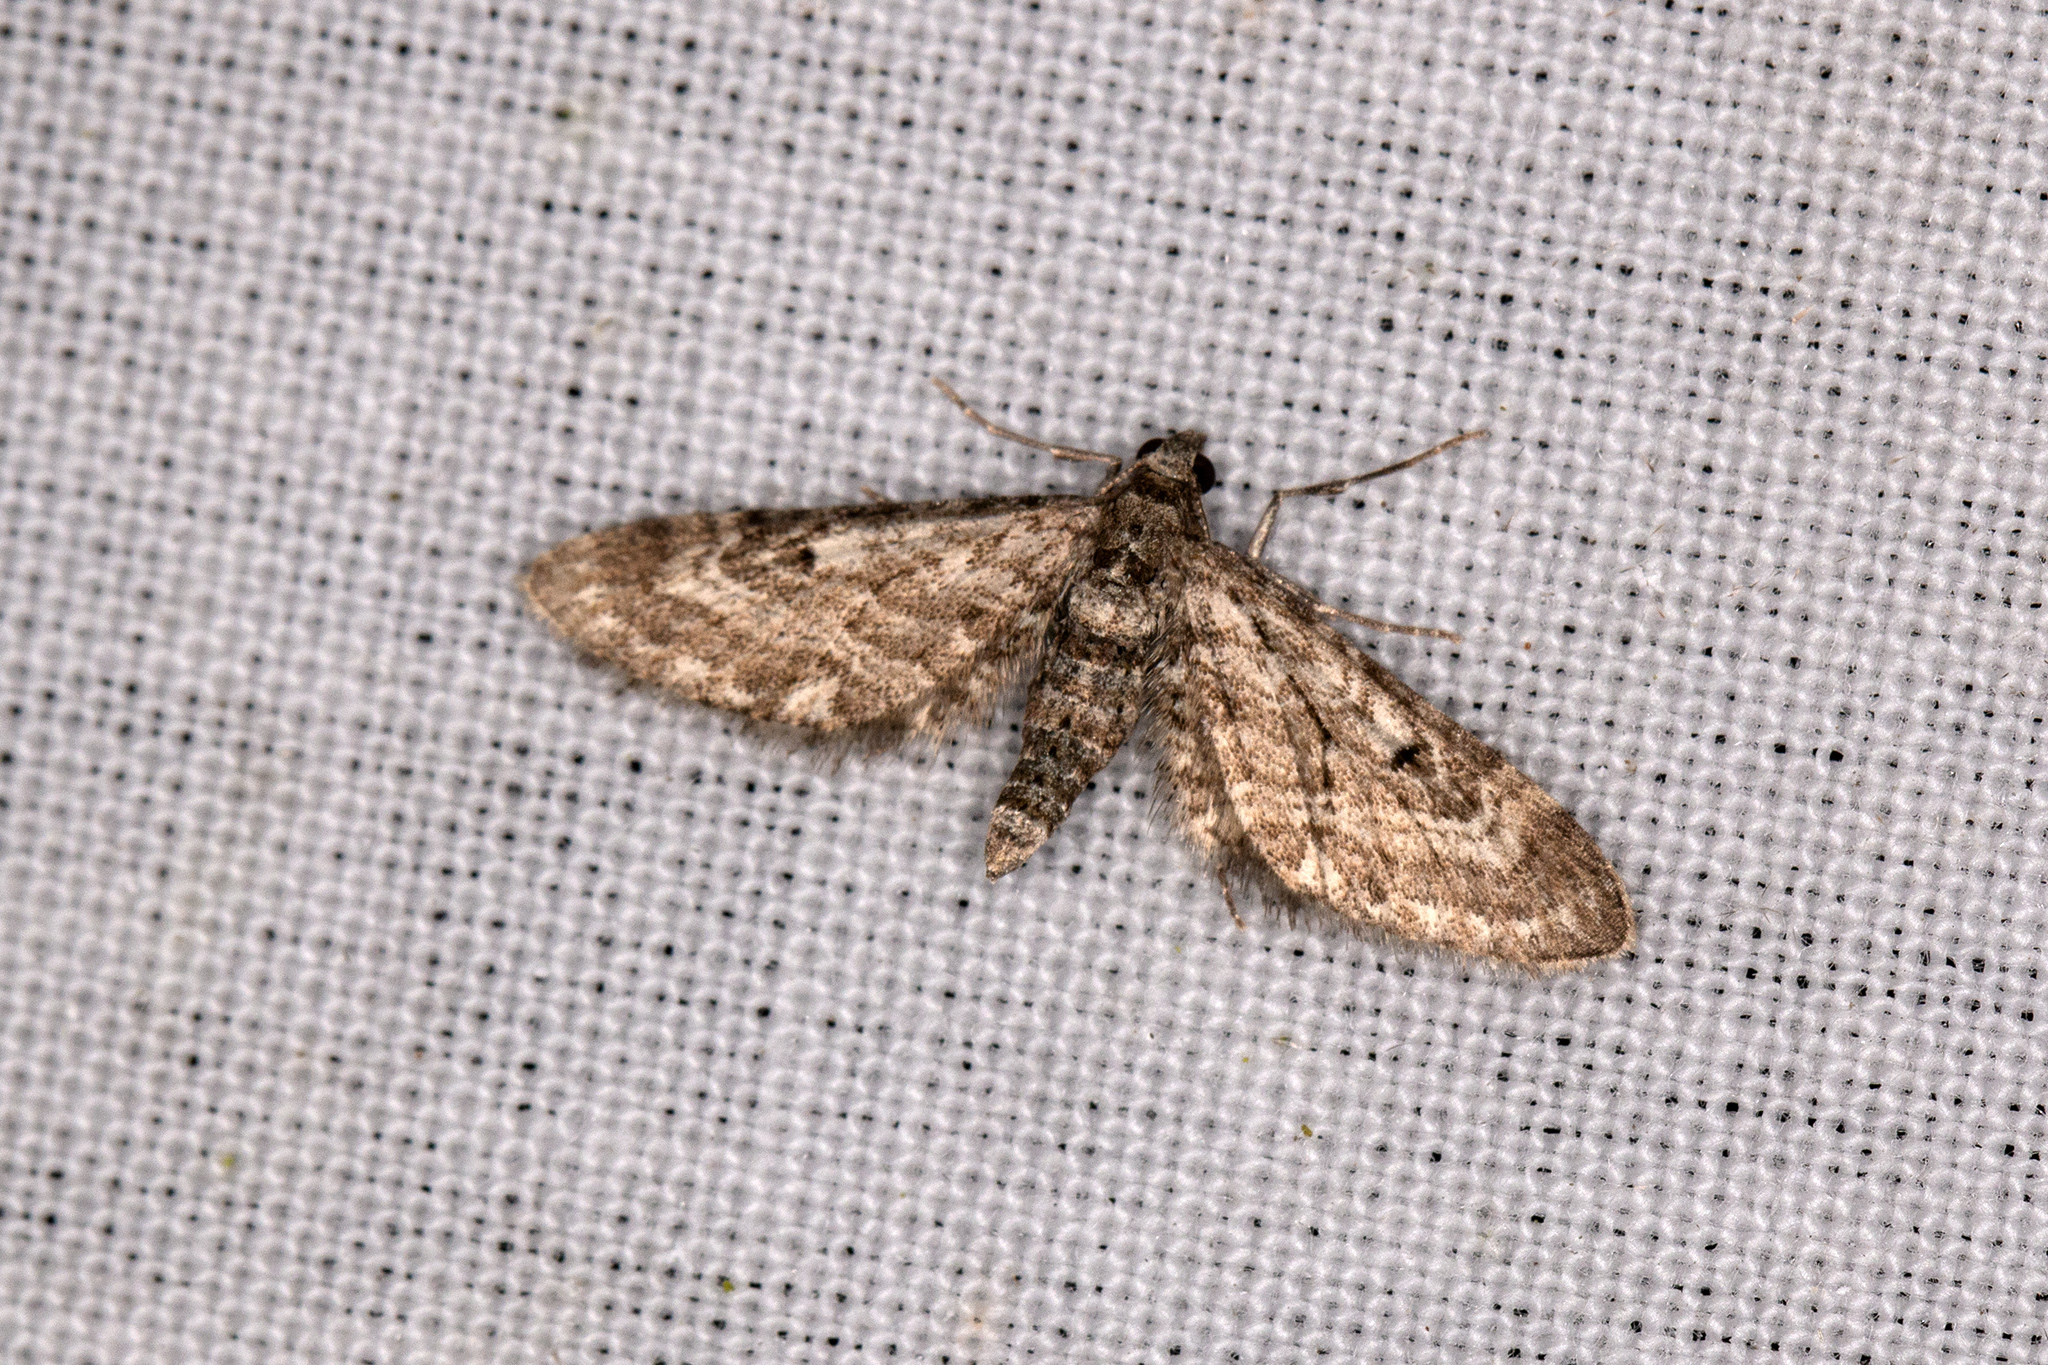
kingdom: Animalia
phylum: Arthropoda
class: Insecta
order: Lepidoptera
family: Geometridae
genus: Eupithecia
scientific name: Eupithecia nanata
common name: Narrow-winged pug
